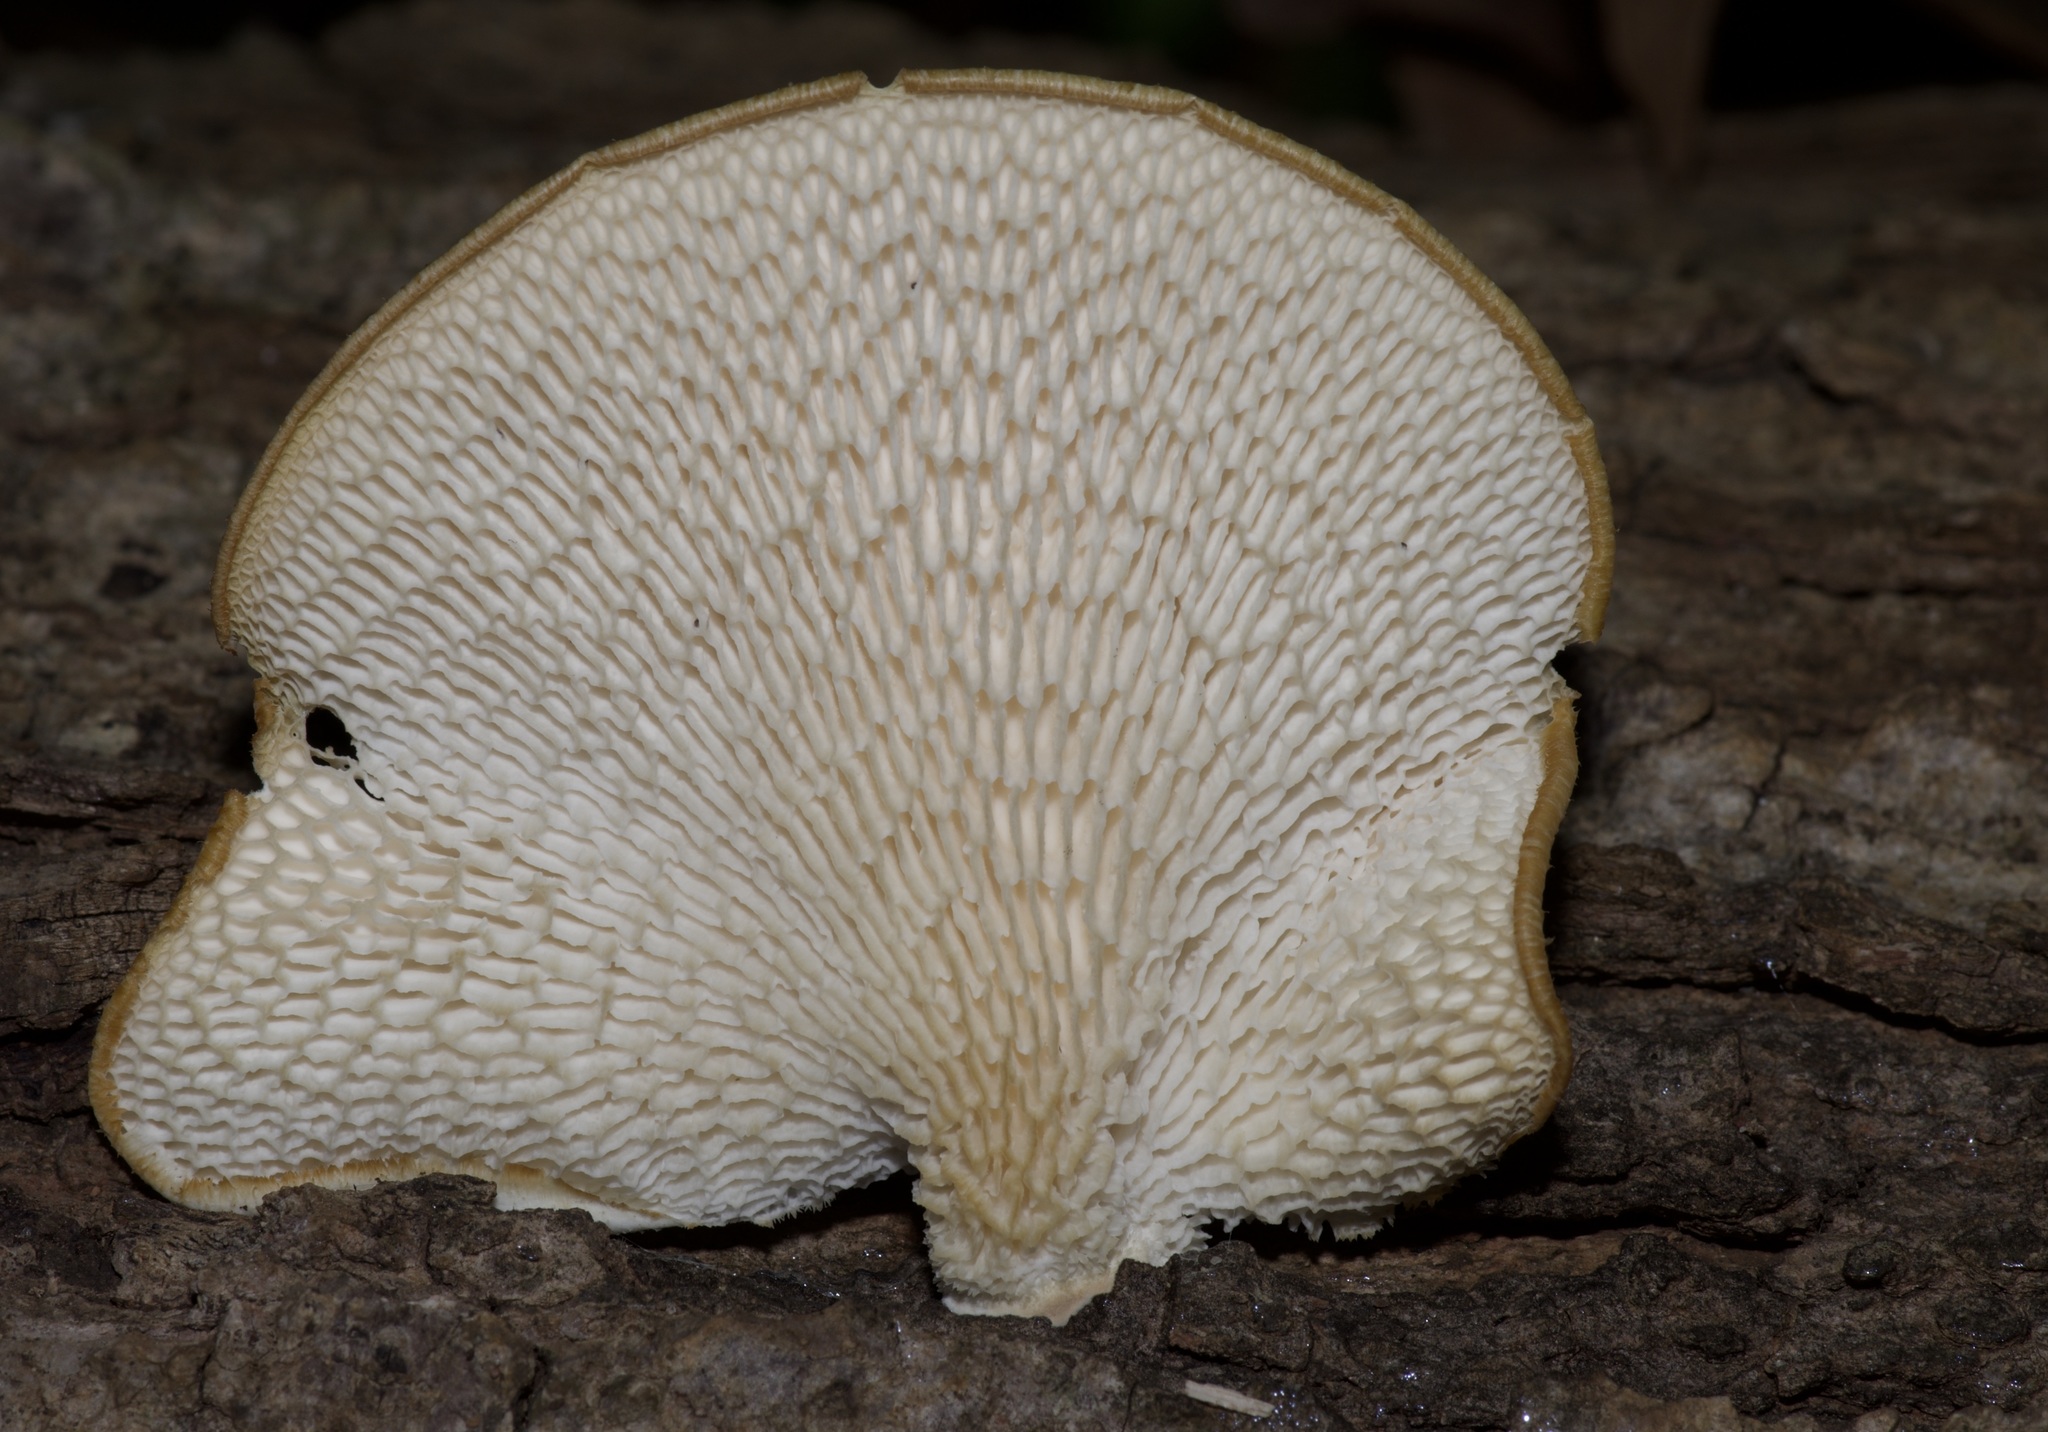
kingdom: Fungi
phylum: Basidiomycota
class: Agaricomycetes
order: Polyporales
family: Polyporaceae
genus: Neofavolus
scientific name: Neofavolus alveolaris
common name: Hexagonal-pored polypore
